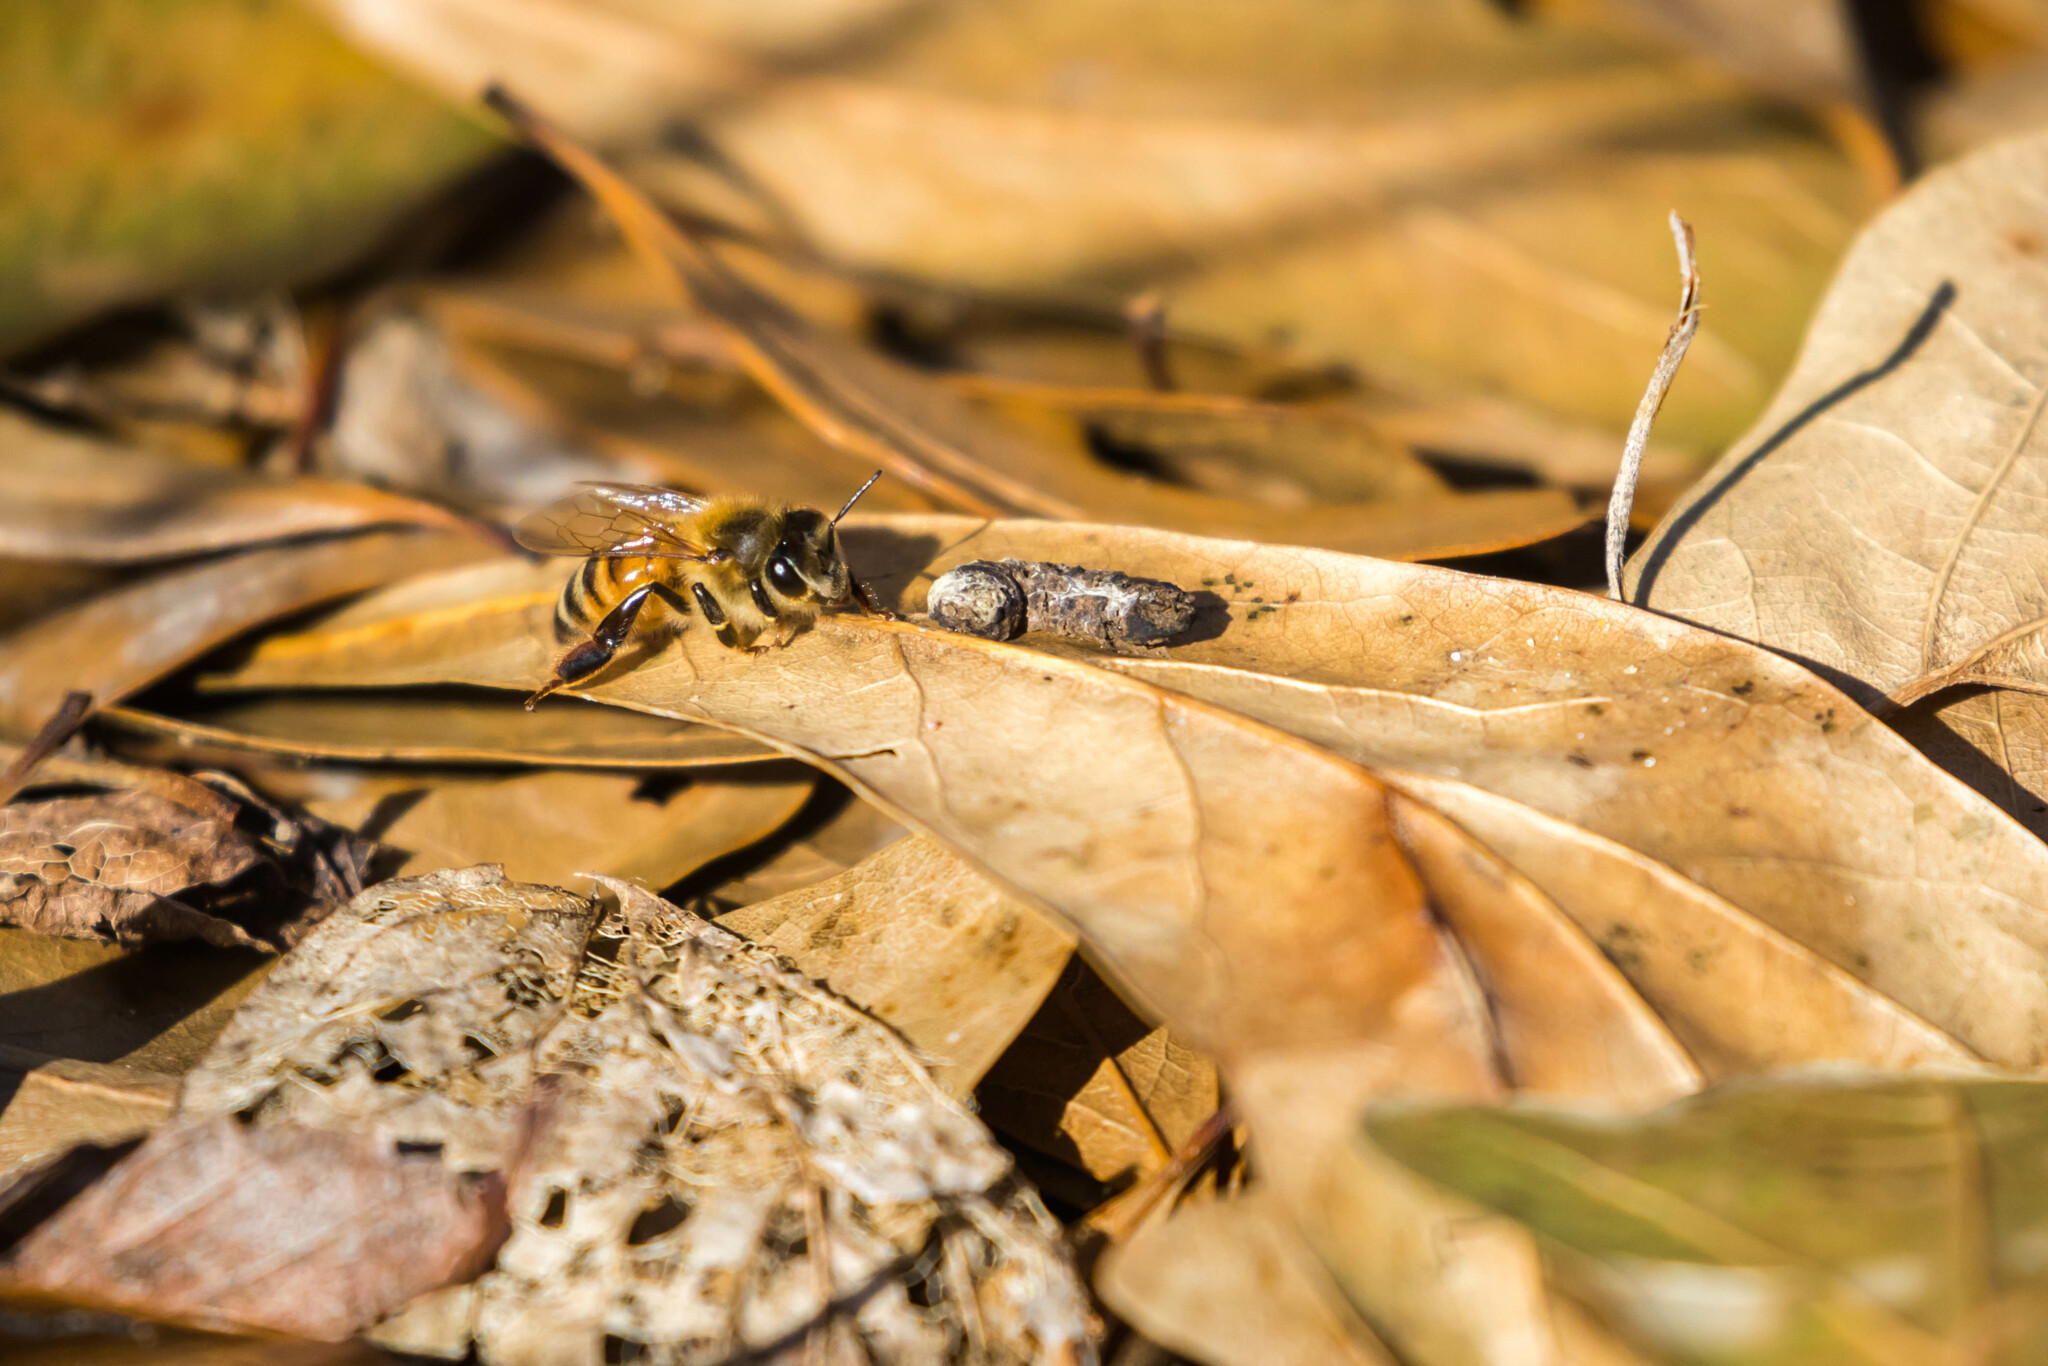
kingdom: Animalia
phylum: Arthropoda
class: Insecta
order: Hymenoptera
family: Apidae
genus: Apis
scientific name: Apis mellifera
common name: Honey bee
